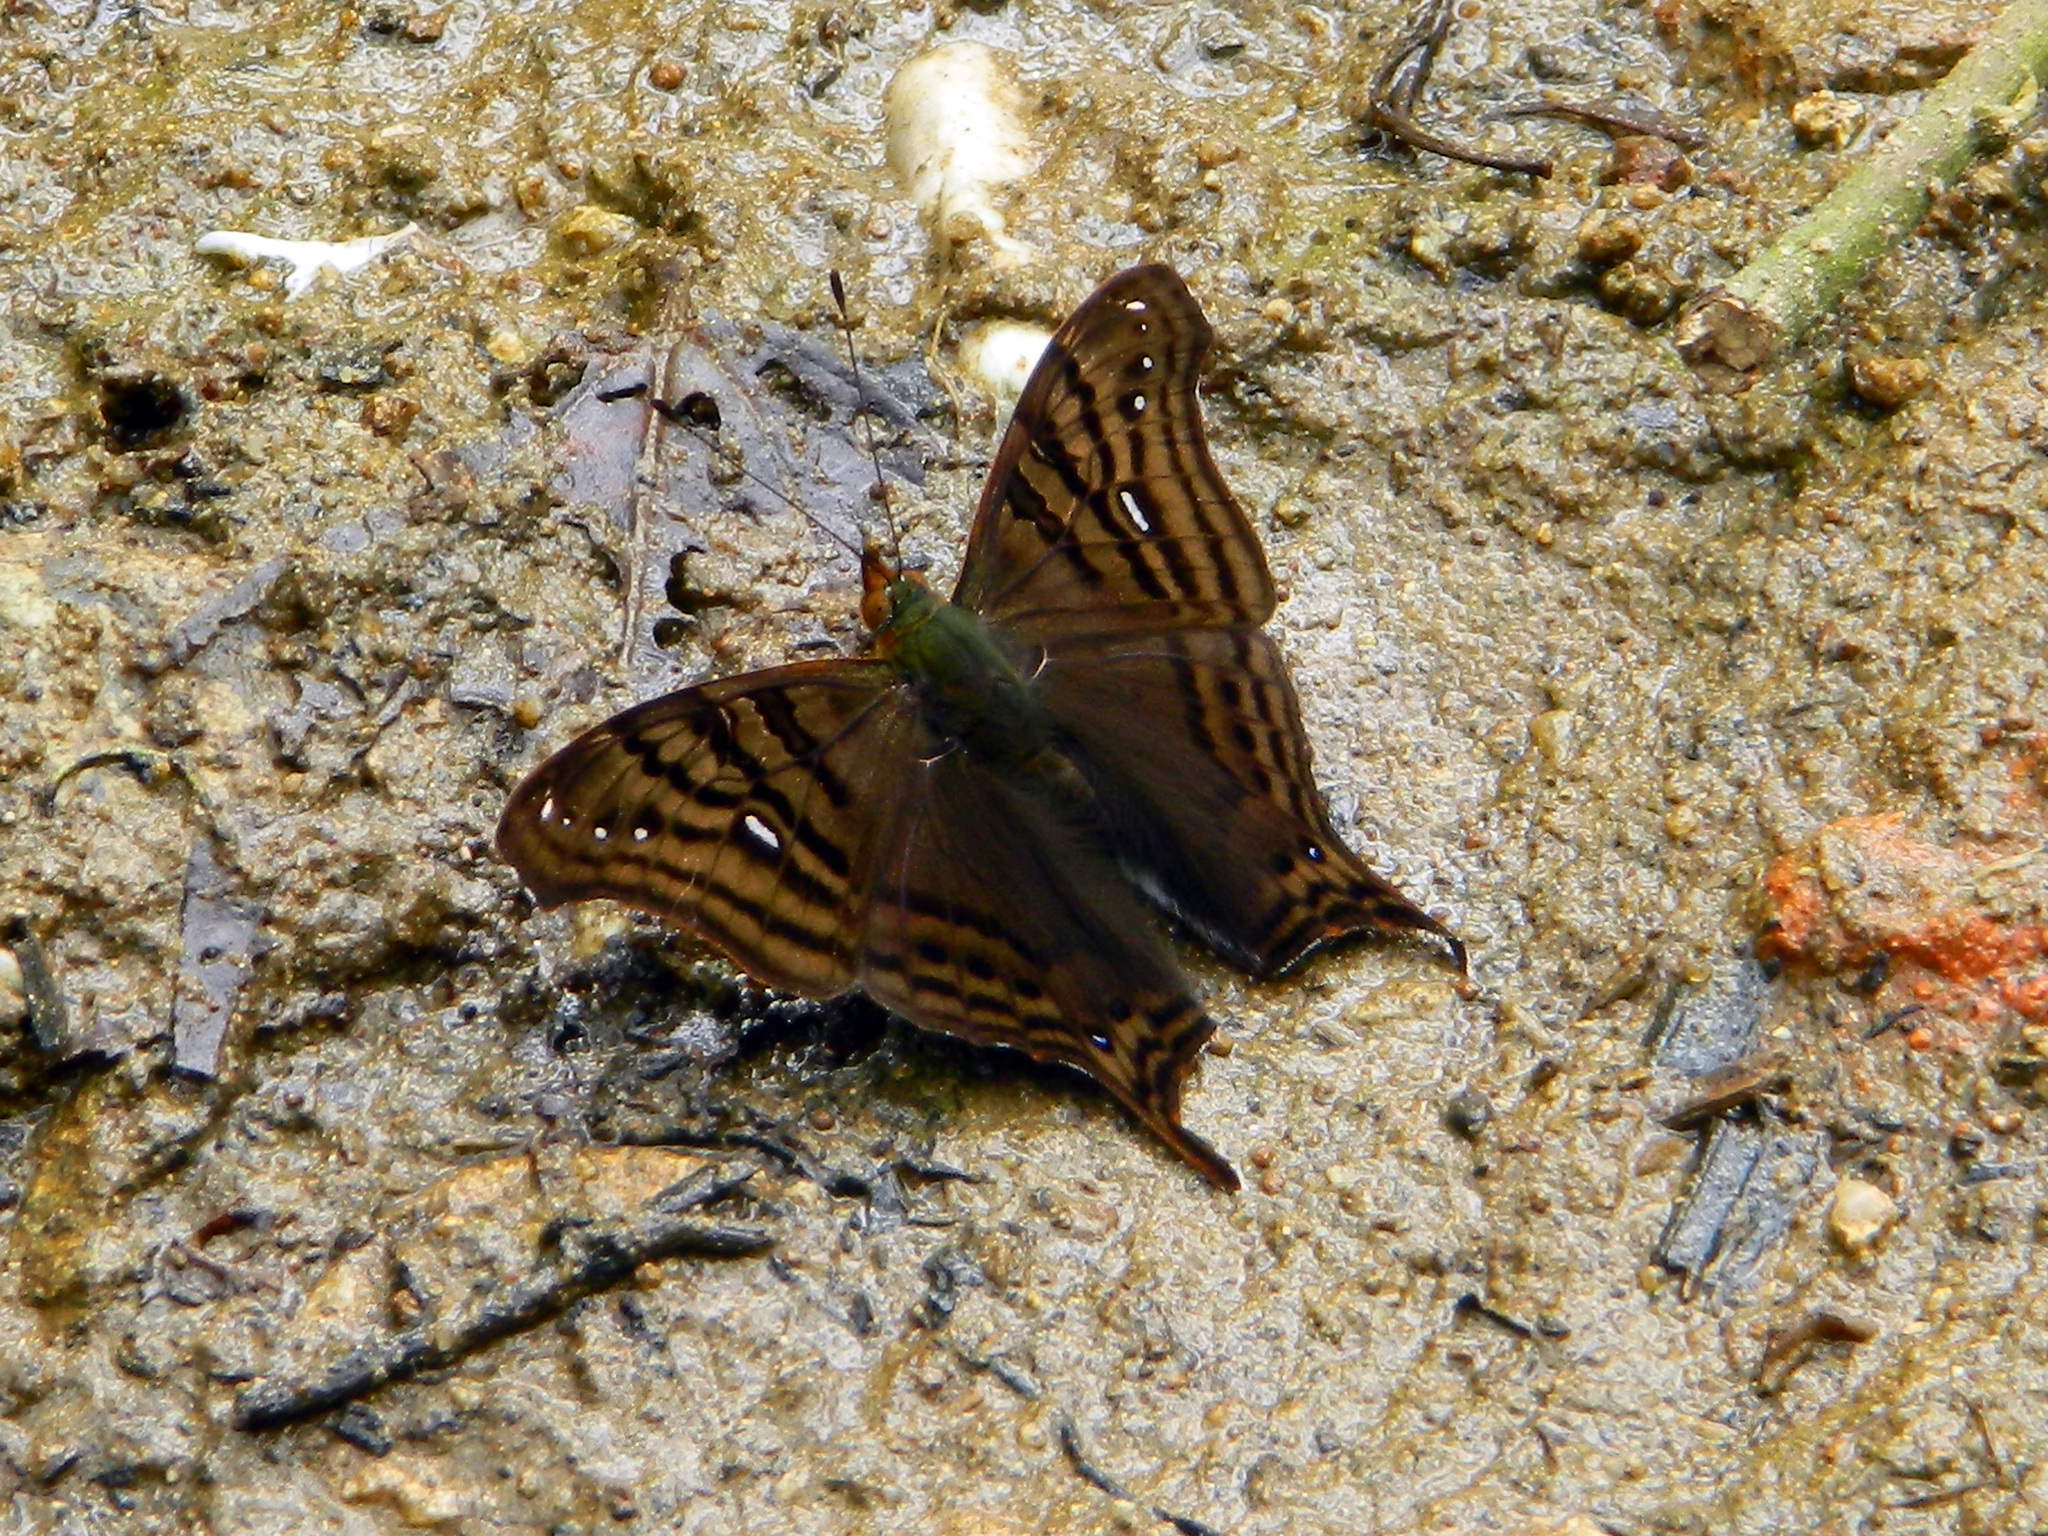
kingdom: Animalia
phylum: Arthropoda
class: Insecta
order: Lepidoptera
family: Nymphalidae
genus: Hypanartia
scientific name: Hypanartia dione
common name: Banded mapwing
